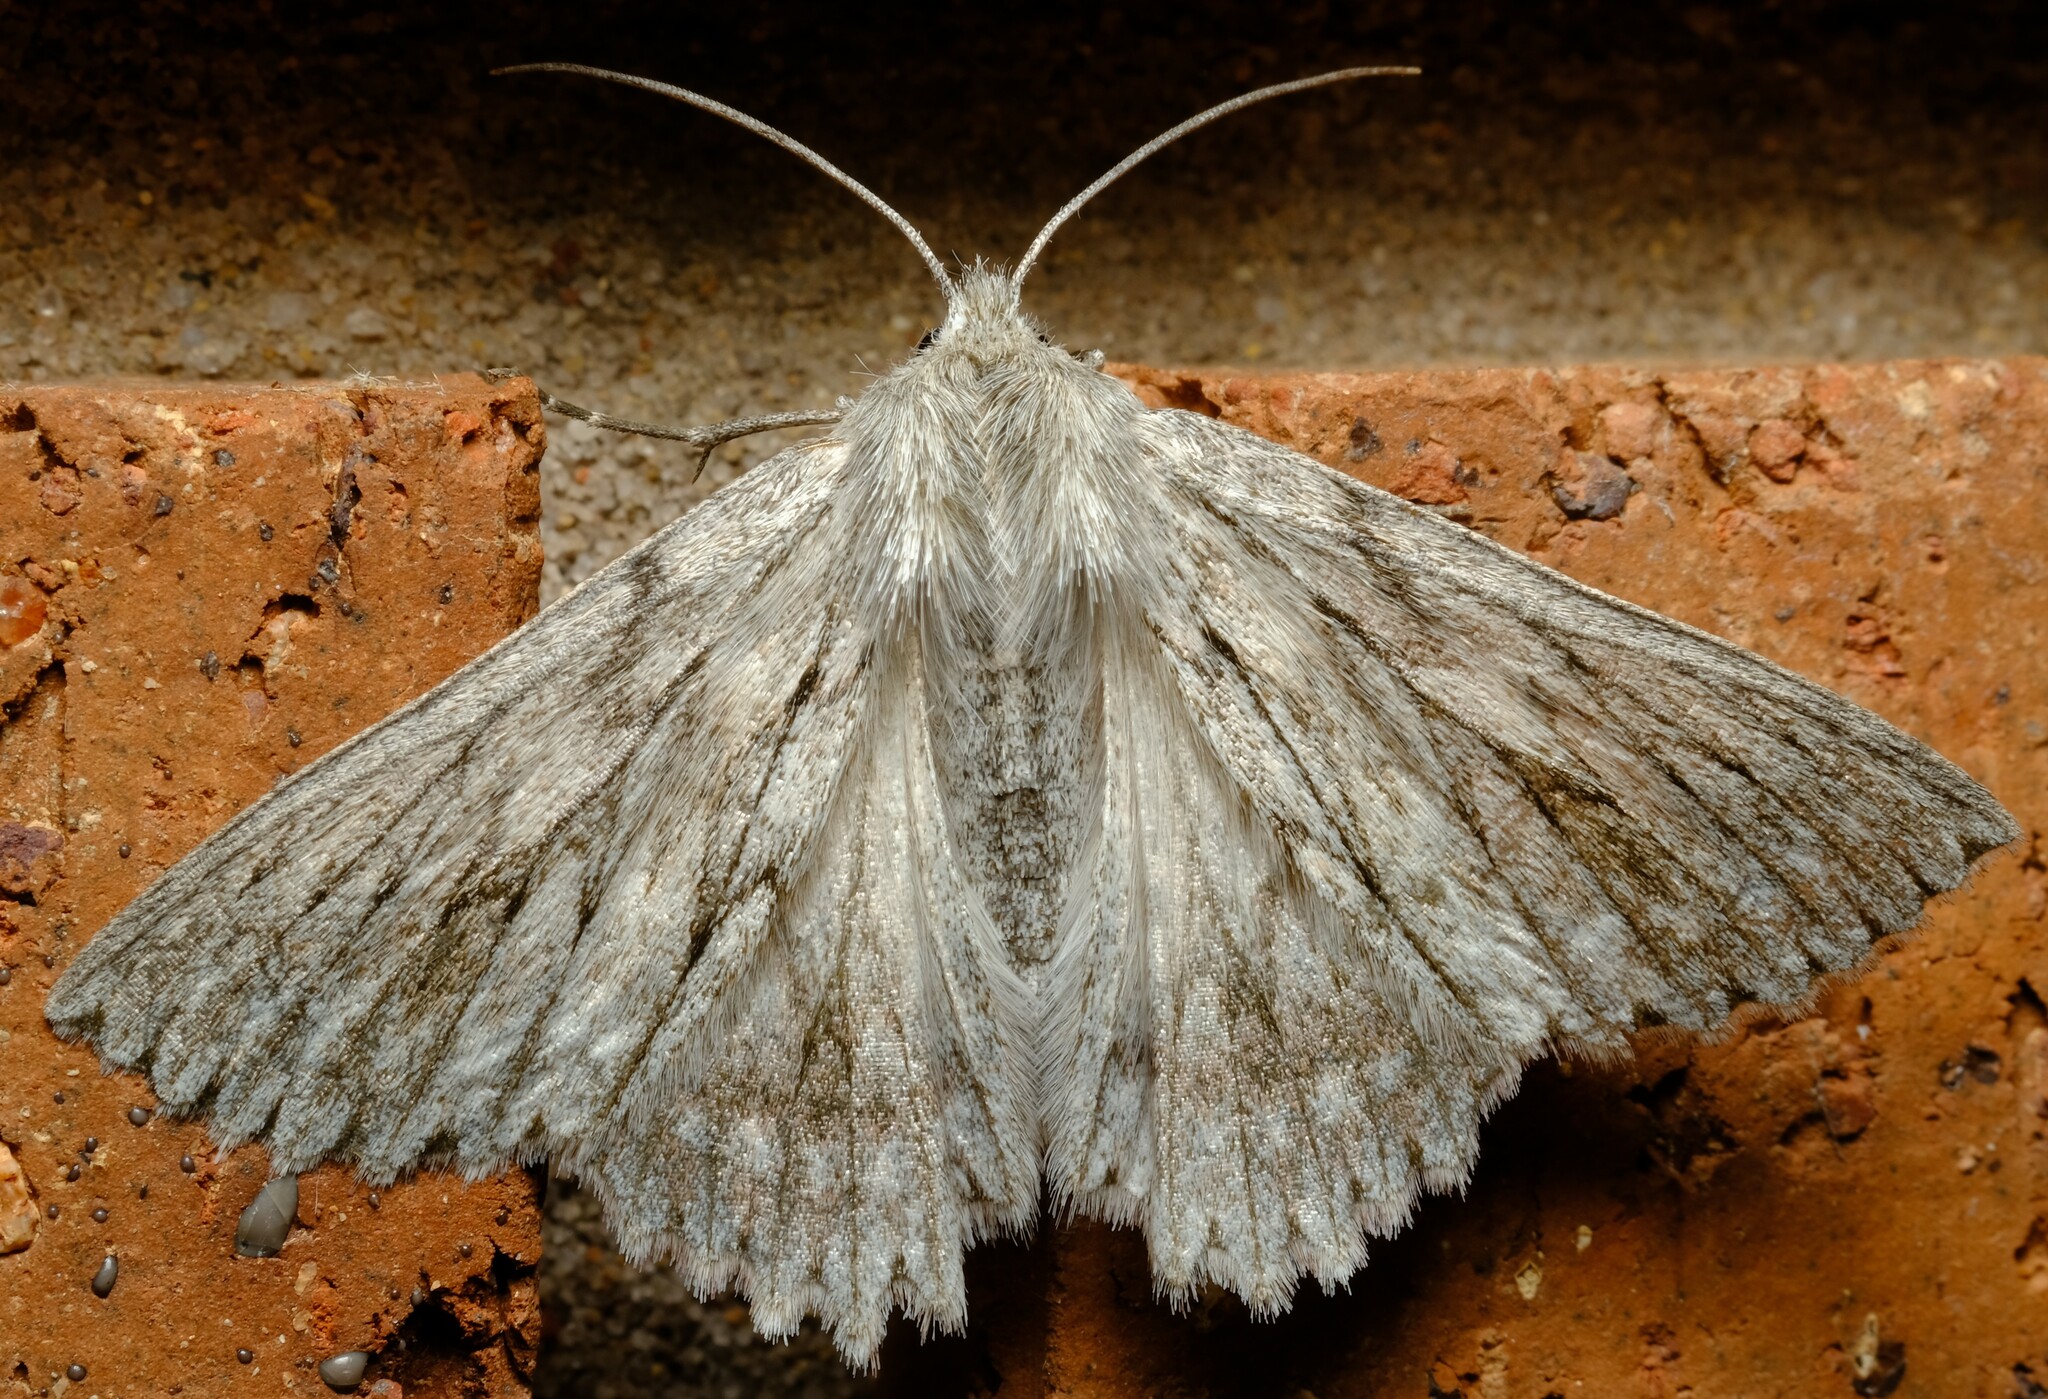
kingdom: Animalia
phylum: Arthropoda
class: Insecta
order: Lepidoptera
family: Geometridae
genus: Cyneoterpna
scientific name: Cyneoterpna wilsoni
